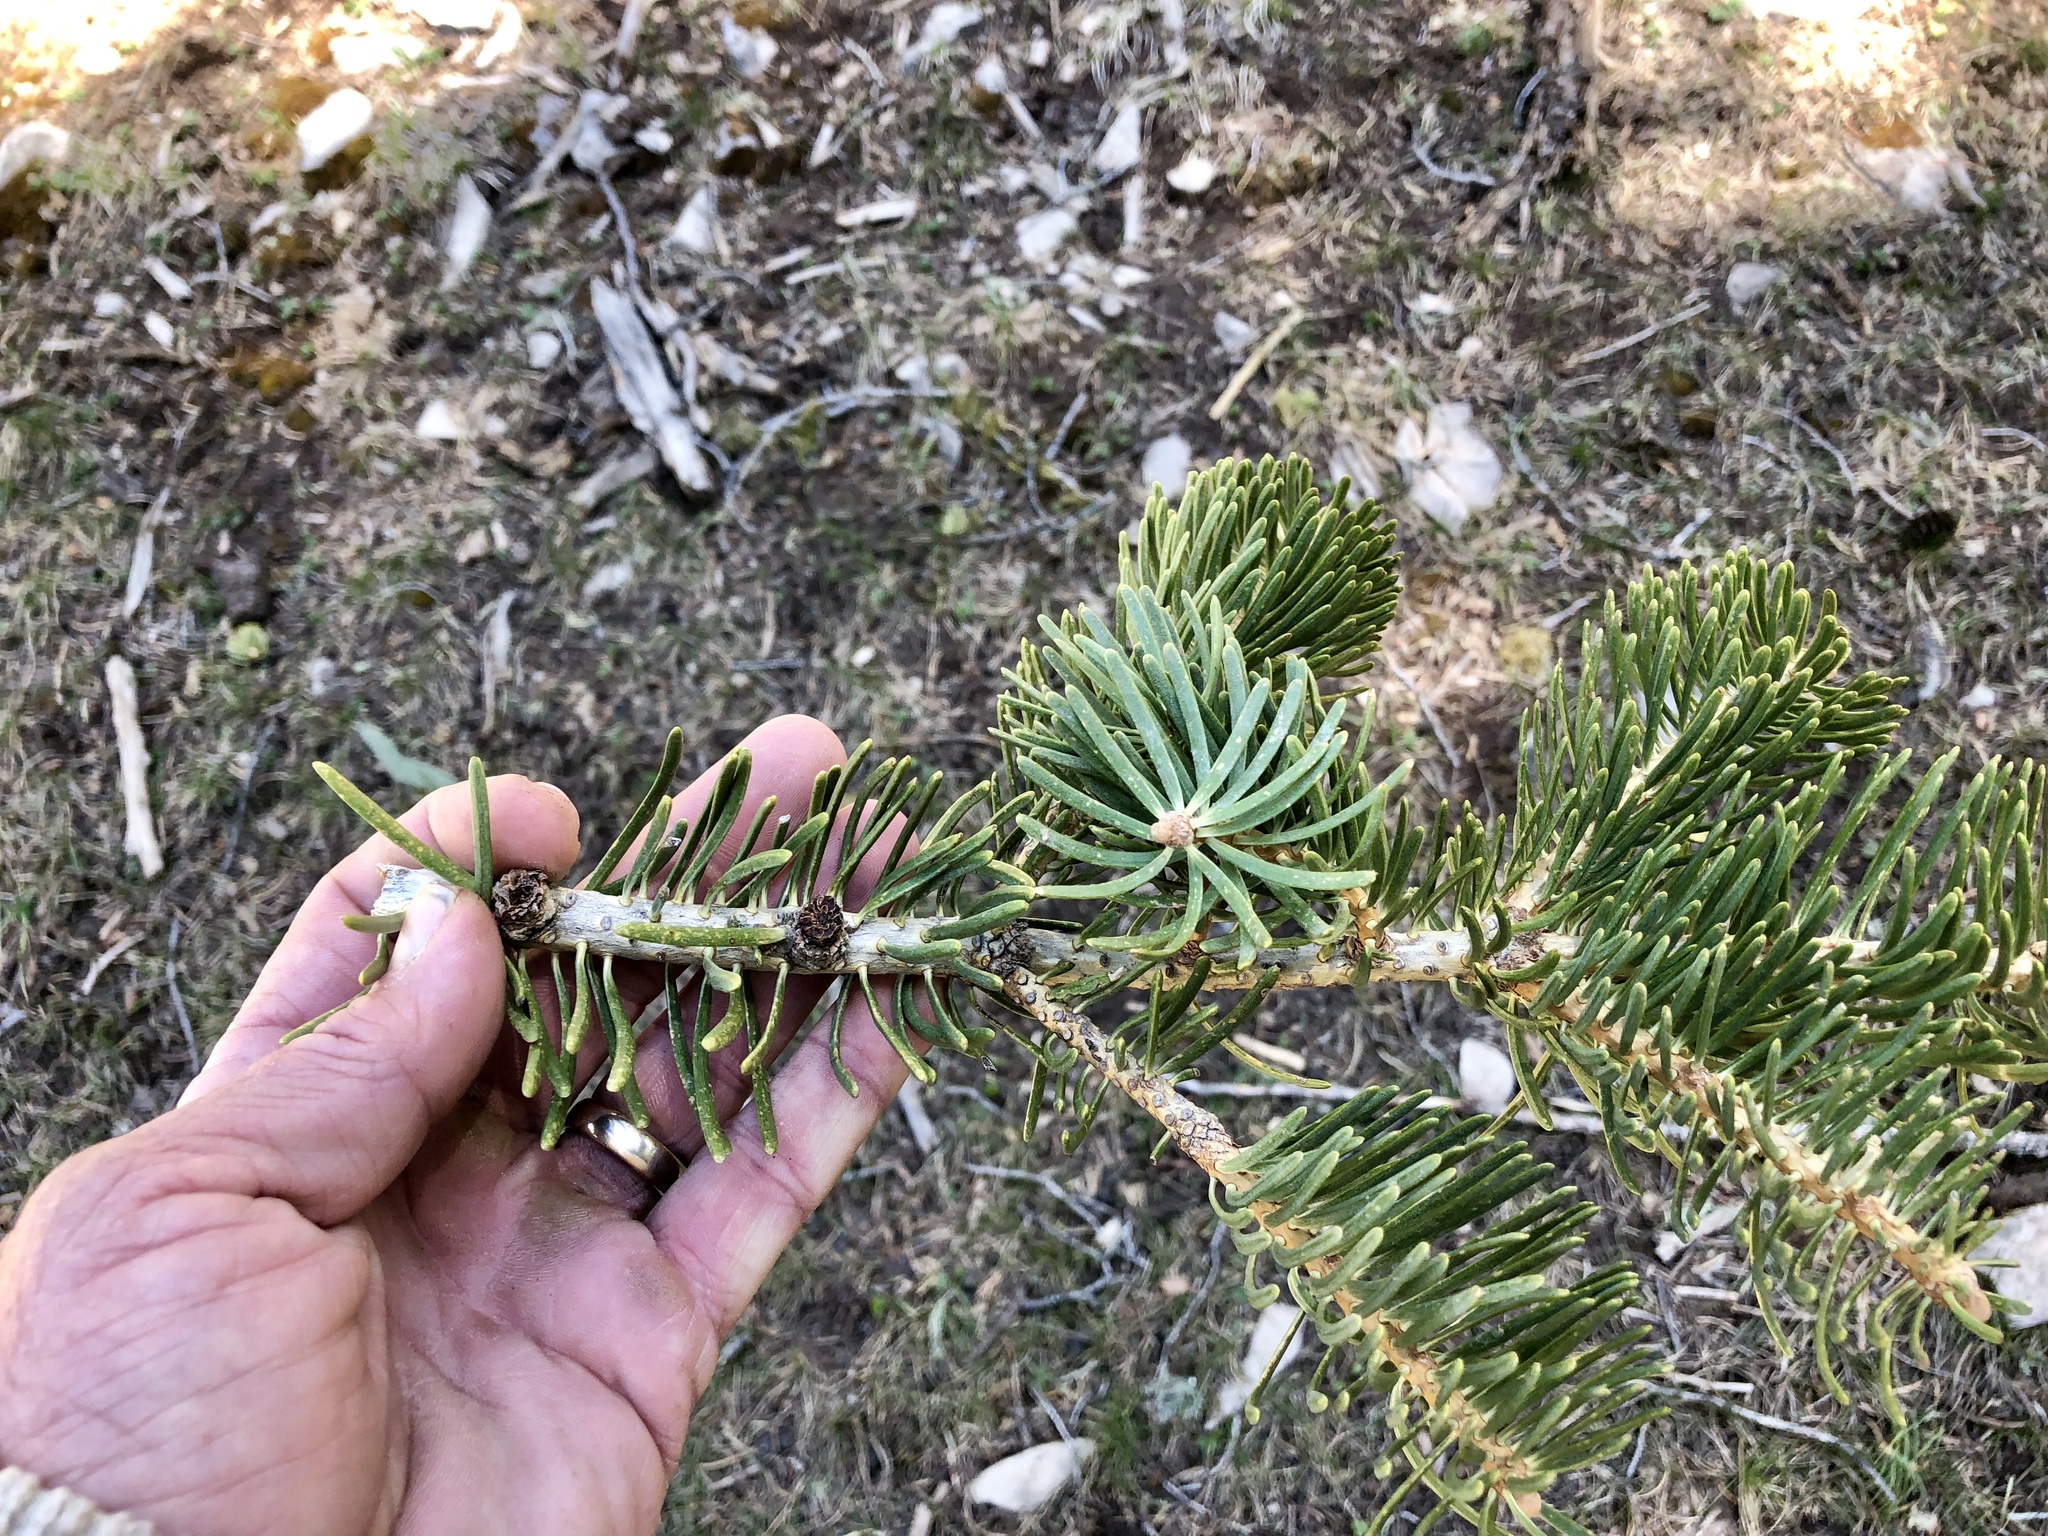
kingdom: Plantae
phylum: Tracheophyta
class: Pinopsida
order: Pinales
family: Pinaceae
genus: Abies
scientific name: Abies concolor
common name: Colorado fir
